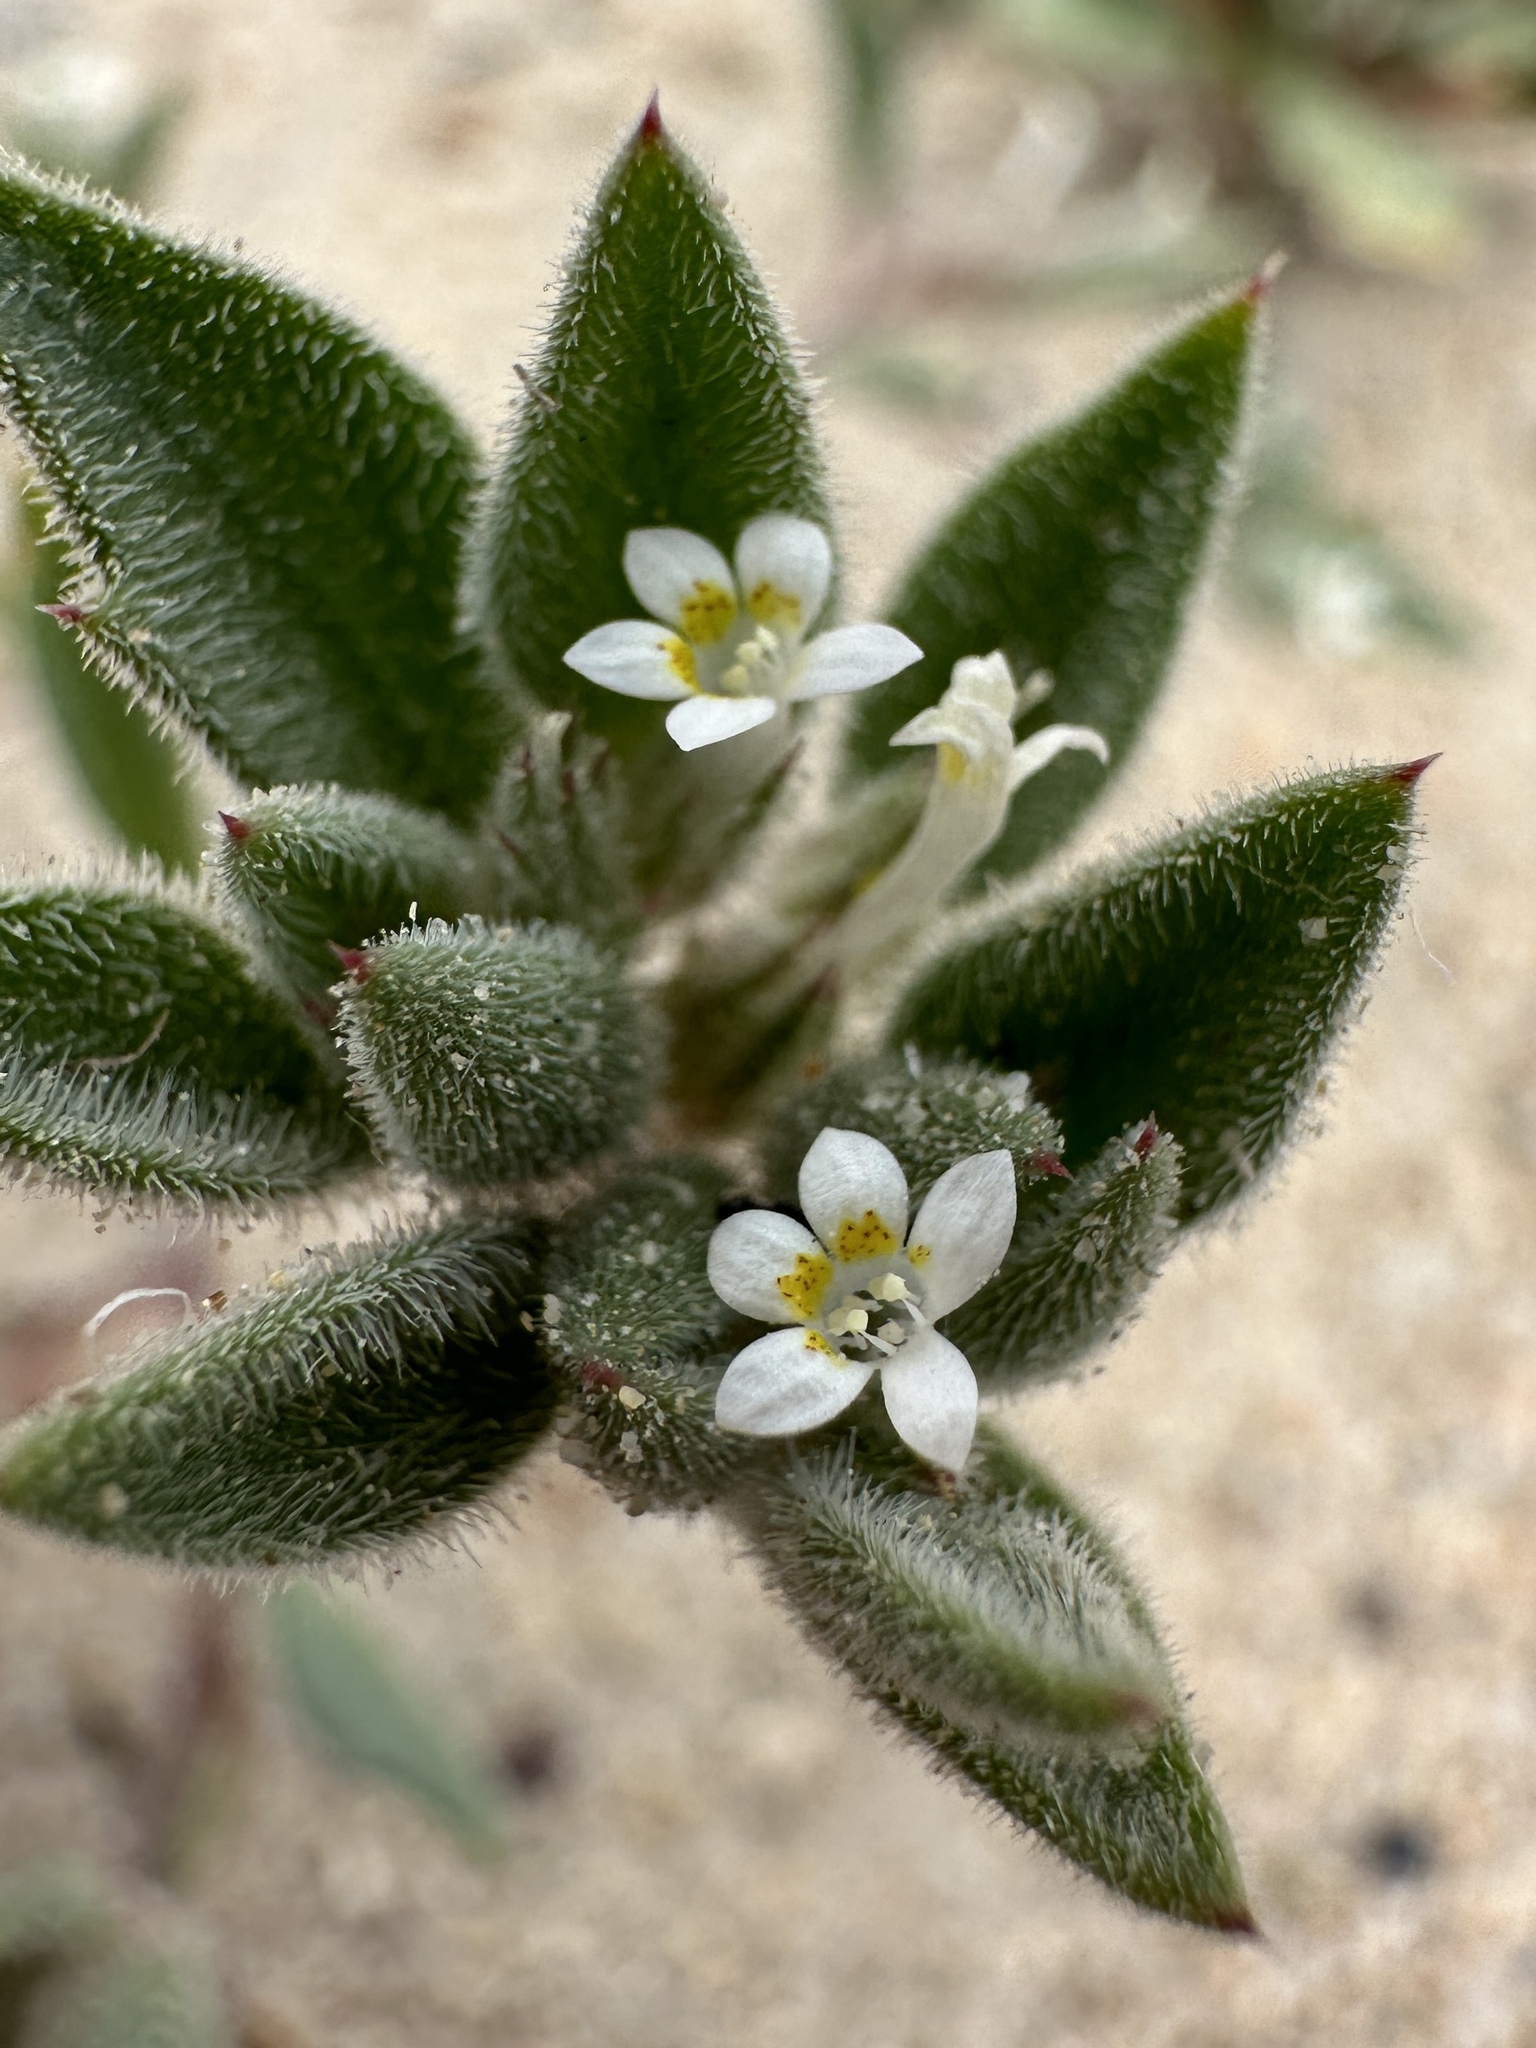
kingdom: Plantae
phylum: Tracheophyta
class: Magnoliopsida
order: Ericales
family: Polemoniaceae
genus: Loeseliastrum
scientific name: Loeseliastrum depressum
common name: Depressed ipomopsis
